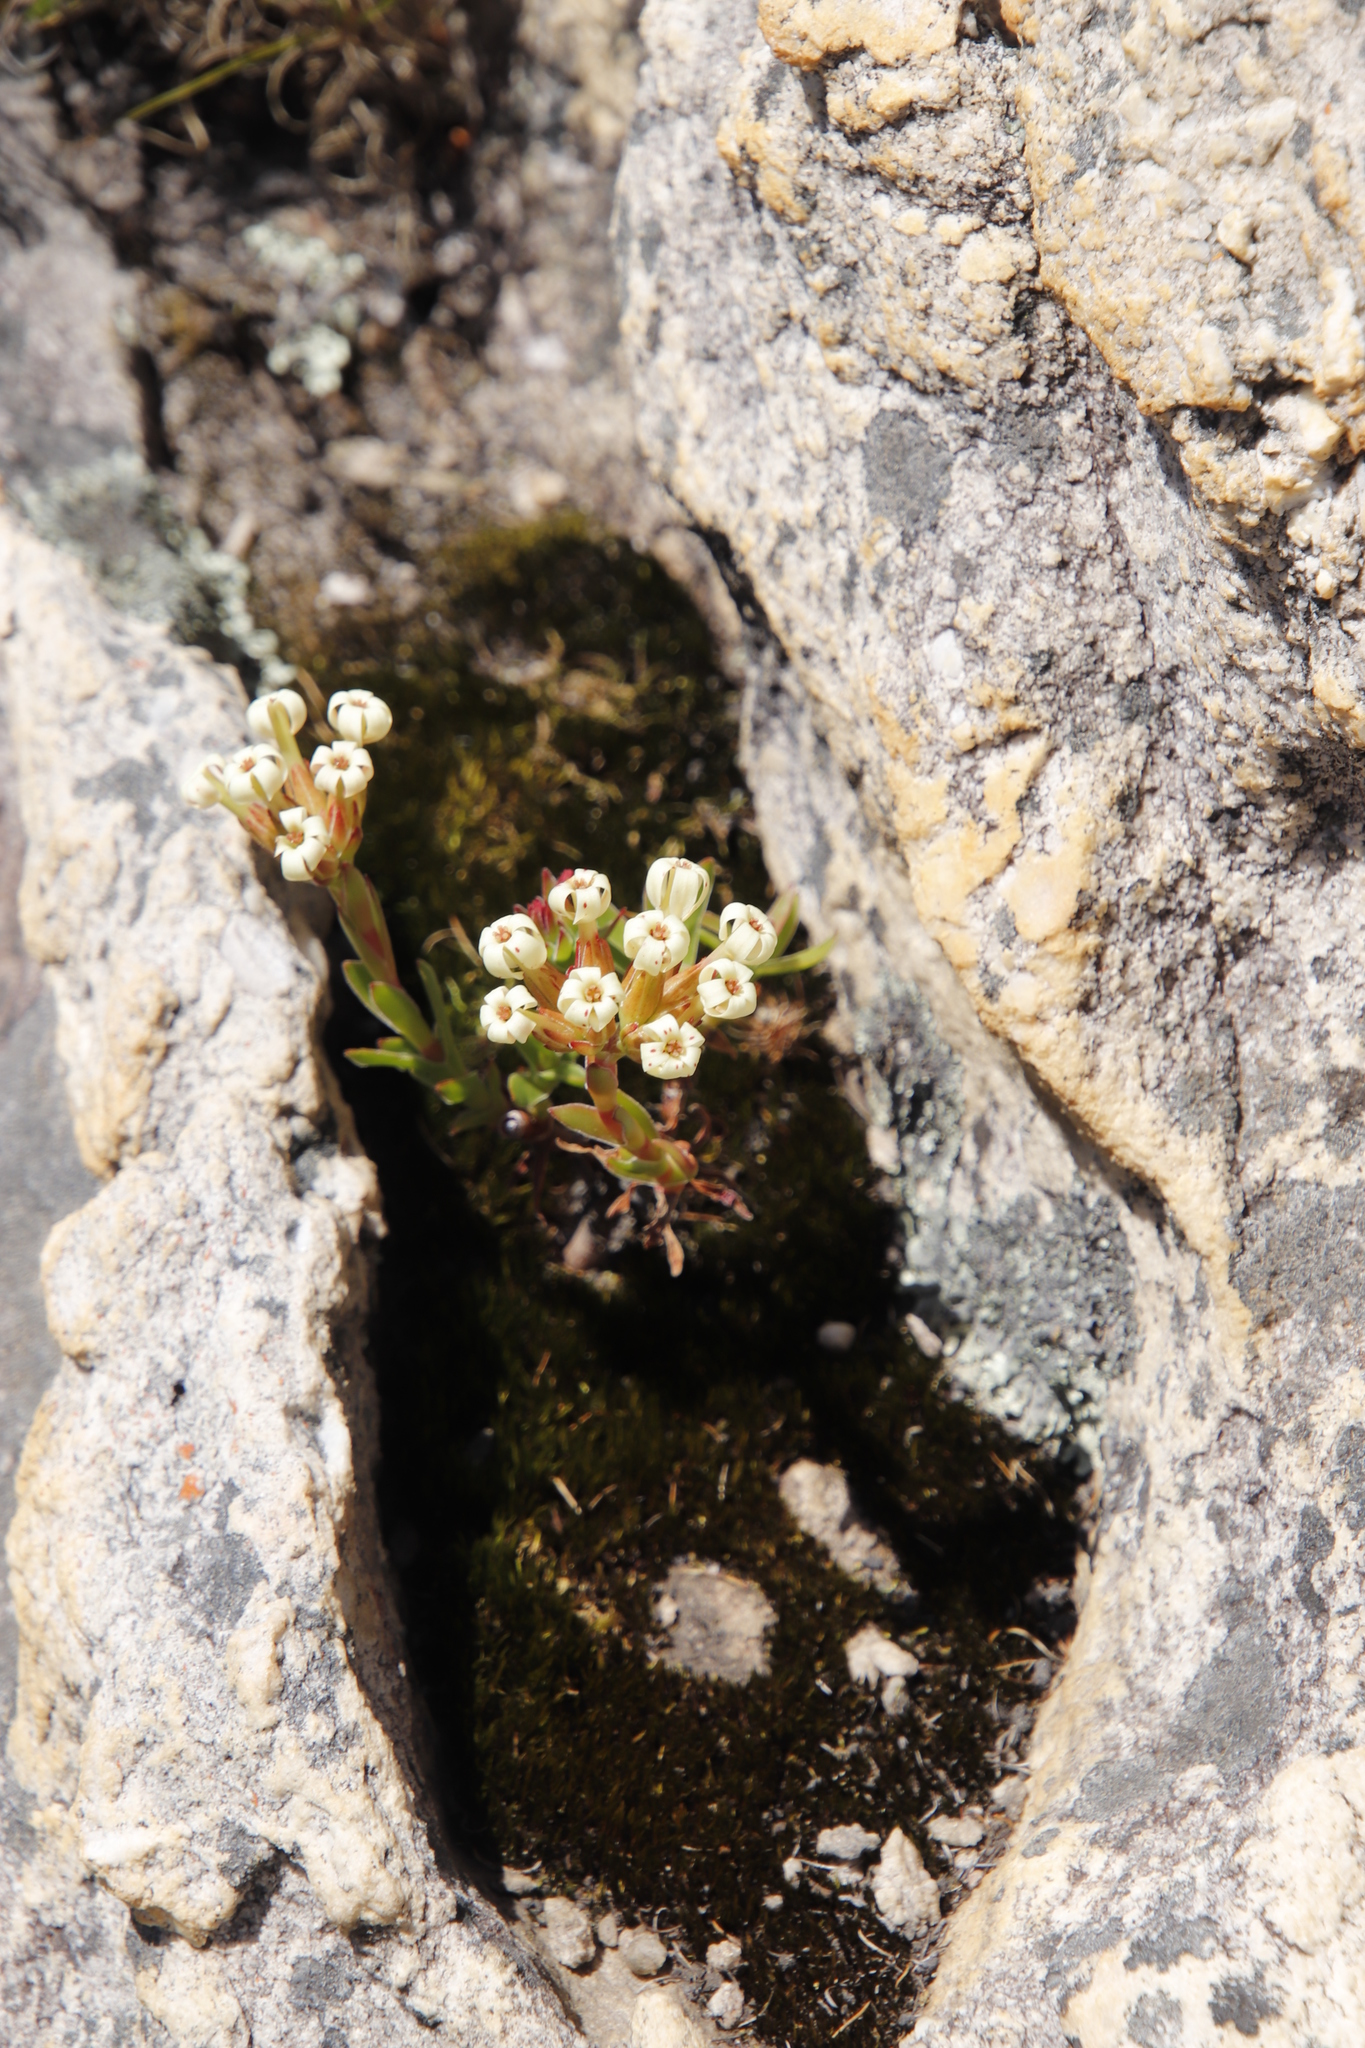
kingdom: Plantae
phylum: Tracheophyta
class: Magnoliopsida
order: Saxifragales
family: Crassulaceae
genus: Crassula
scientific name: Crassula fascicularis
